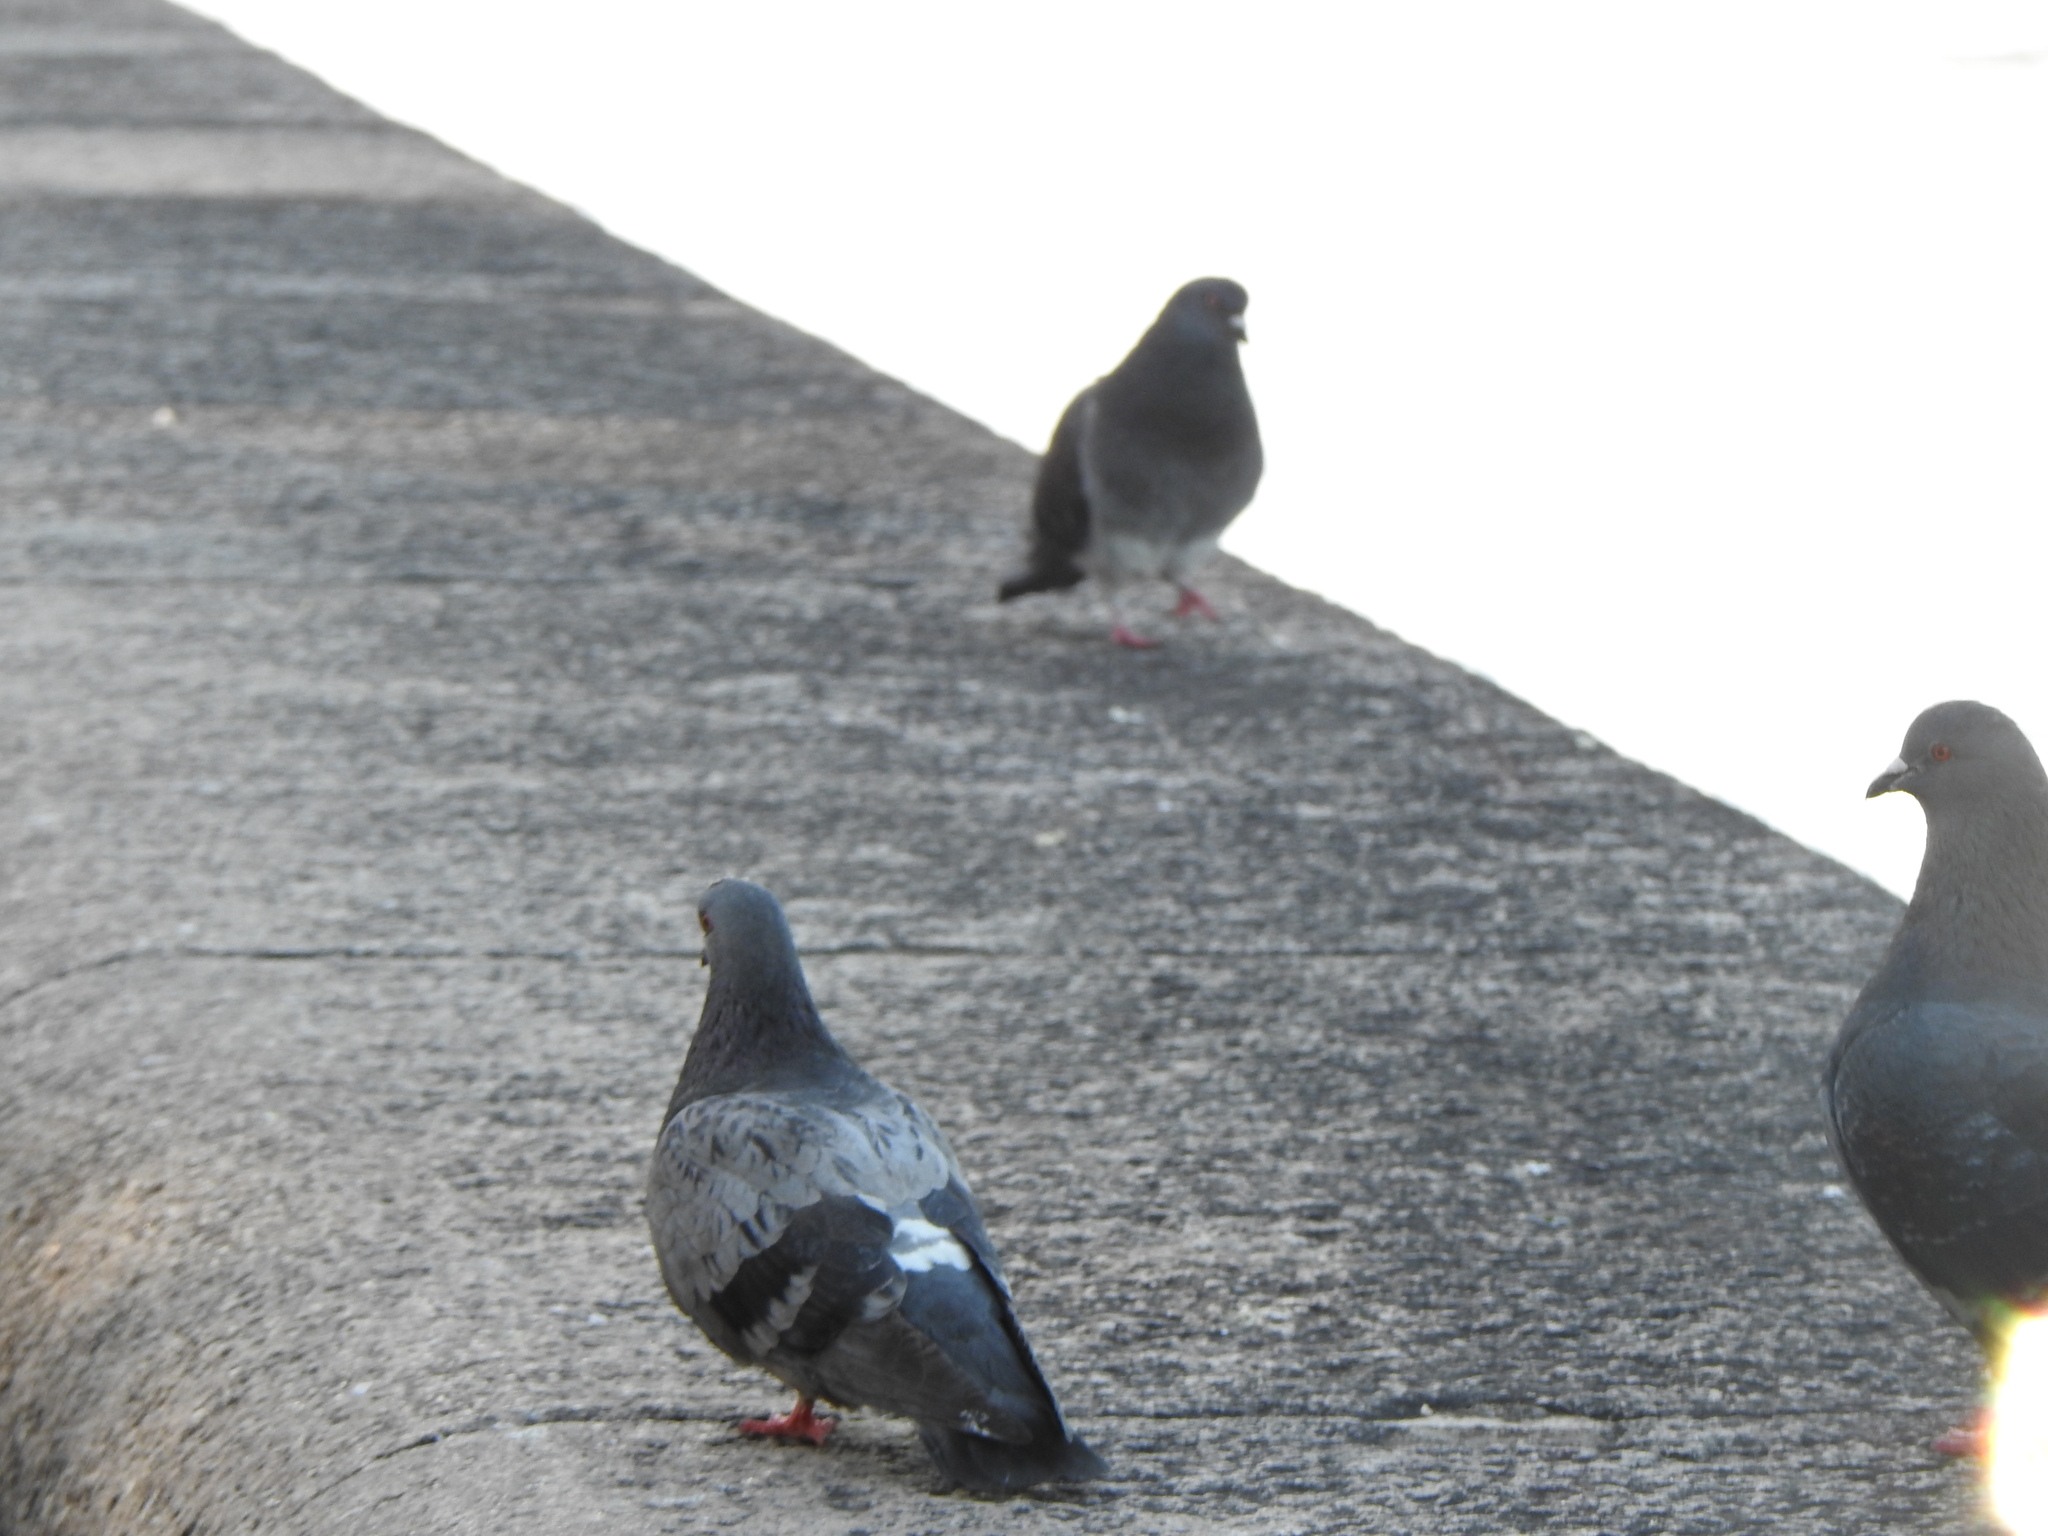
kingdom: Animalia
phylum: Chordata
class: Aves
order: Columbiformes
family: Columbidae
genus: Columba
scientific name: Columba livia
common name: Rock pigeon
